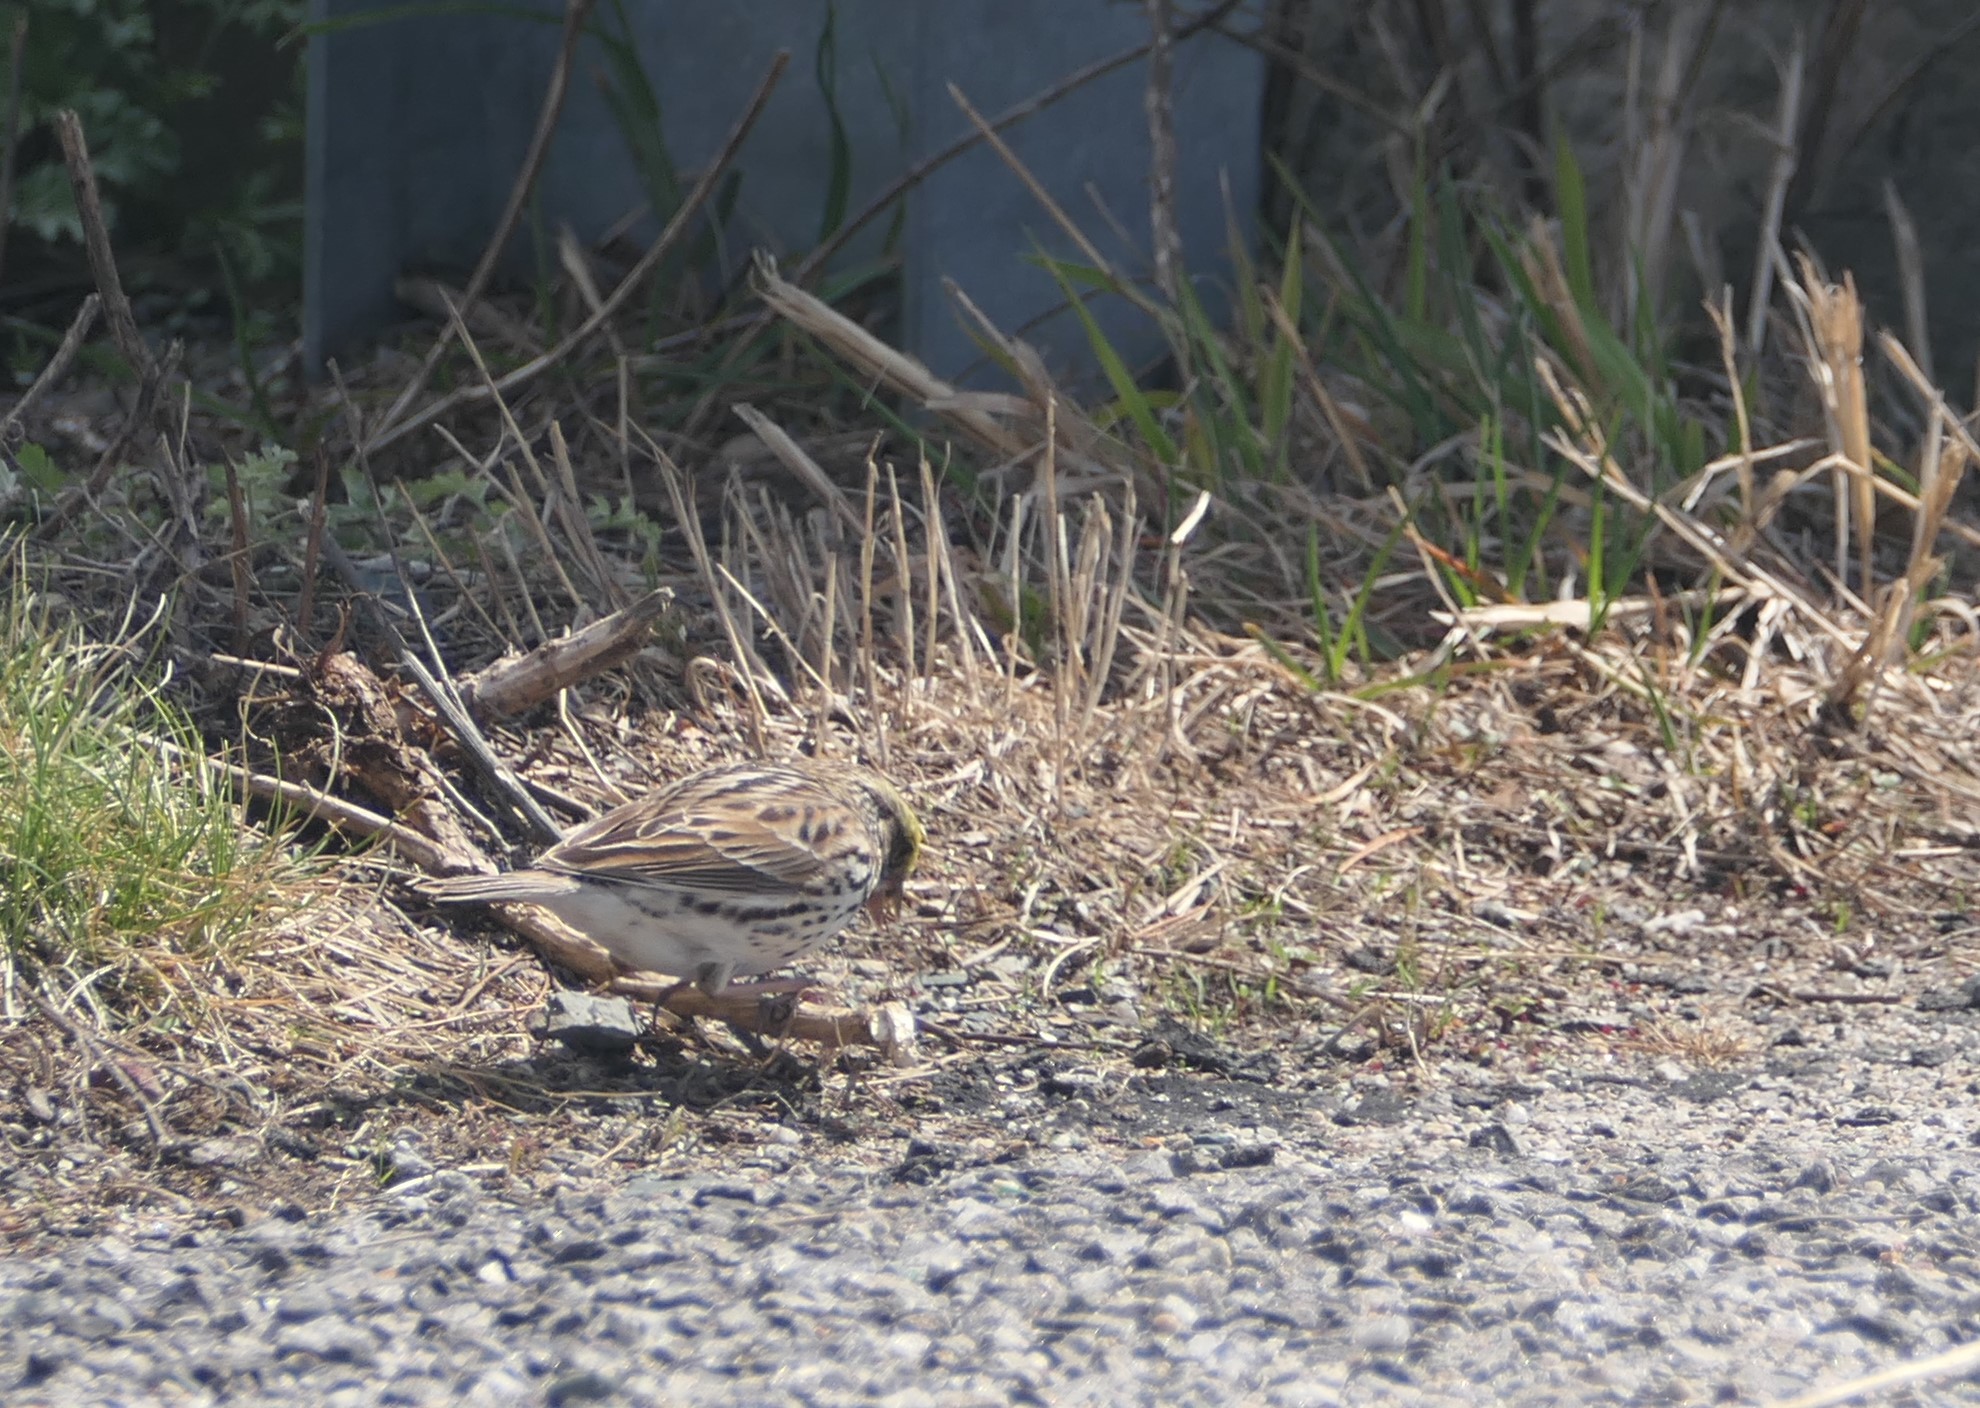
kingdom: Animalia
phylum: Chordata
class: Aves
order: Passeriformes
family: Passerellidae
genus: Passerculus
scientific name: Passerculus sandwichensis
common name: Savannah sparrow
